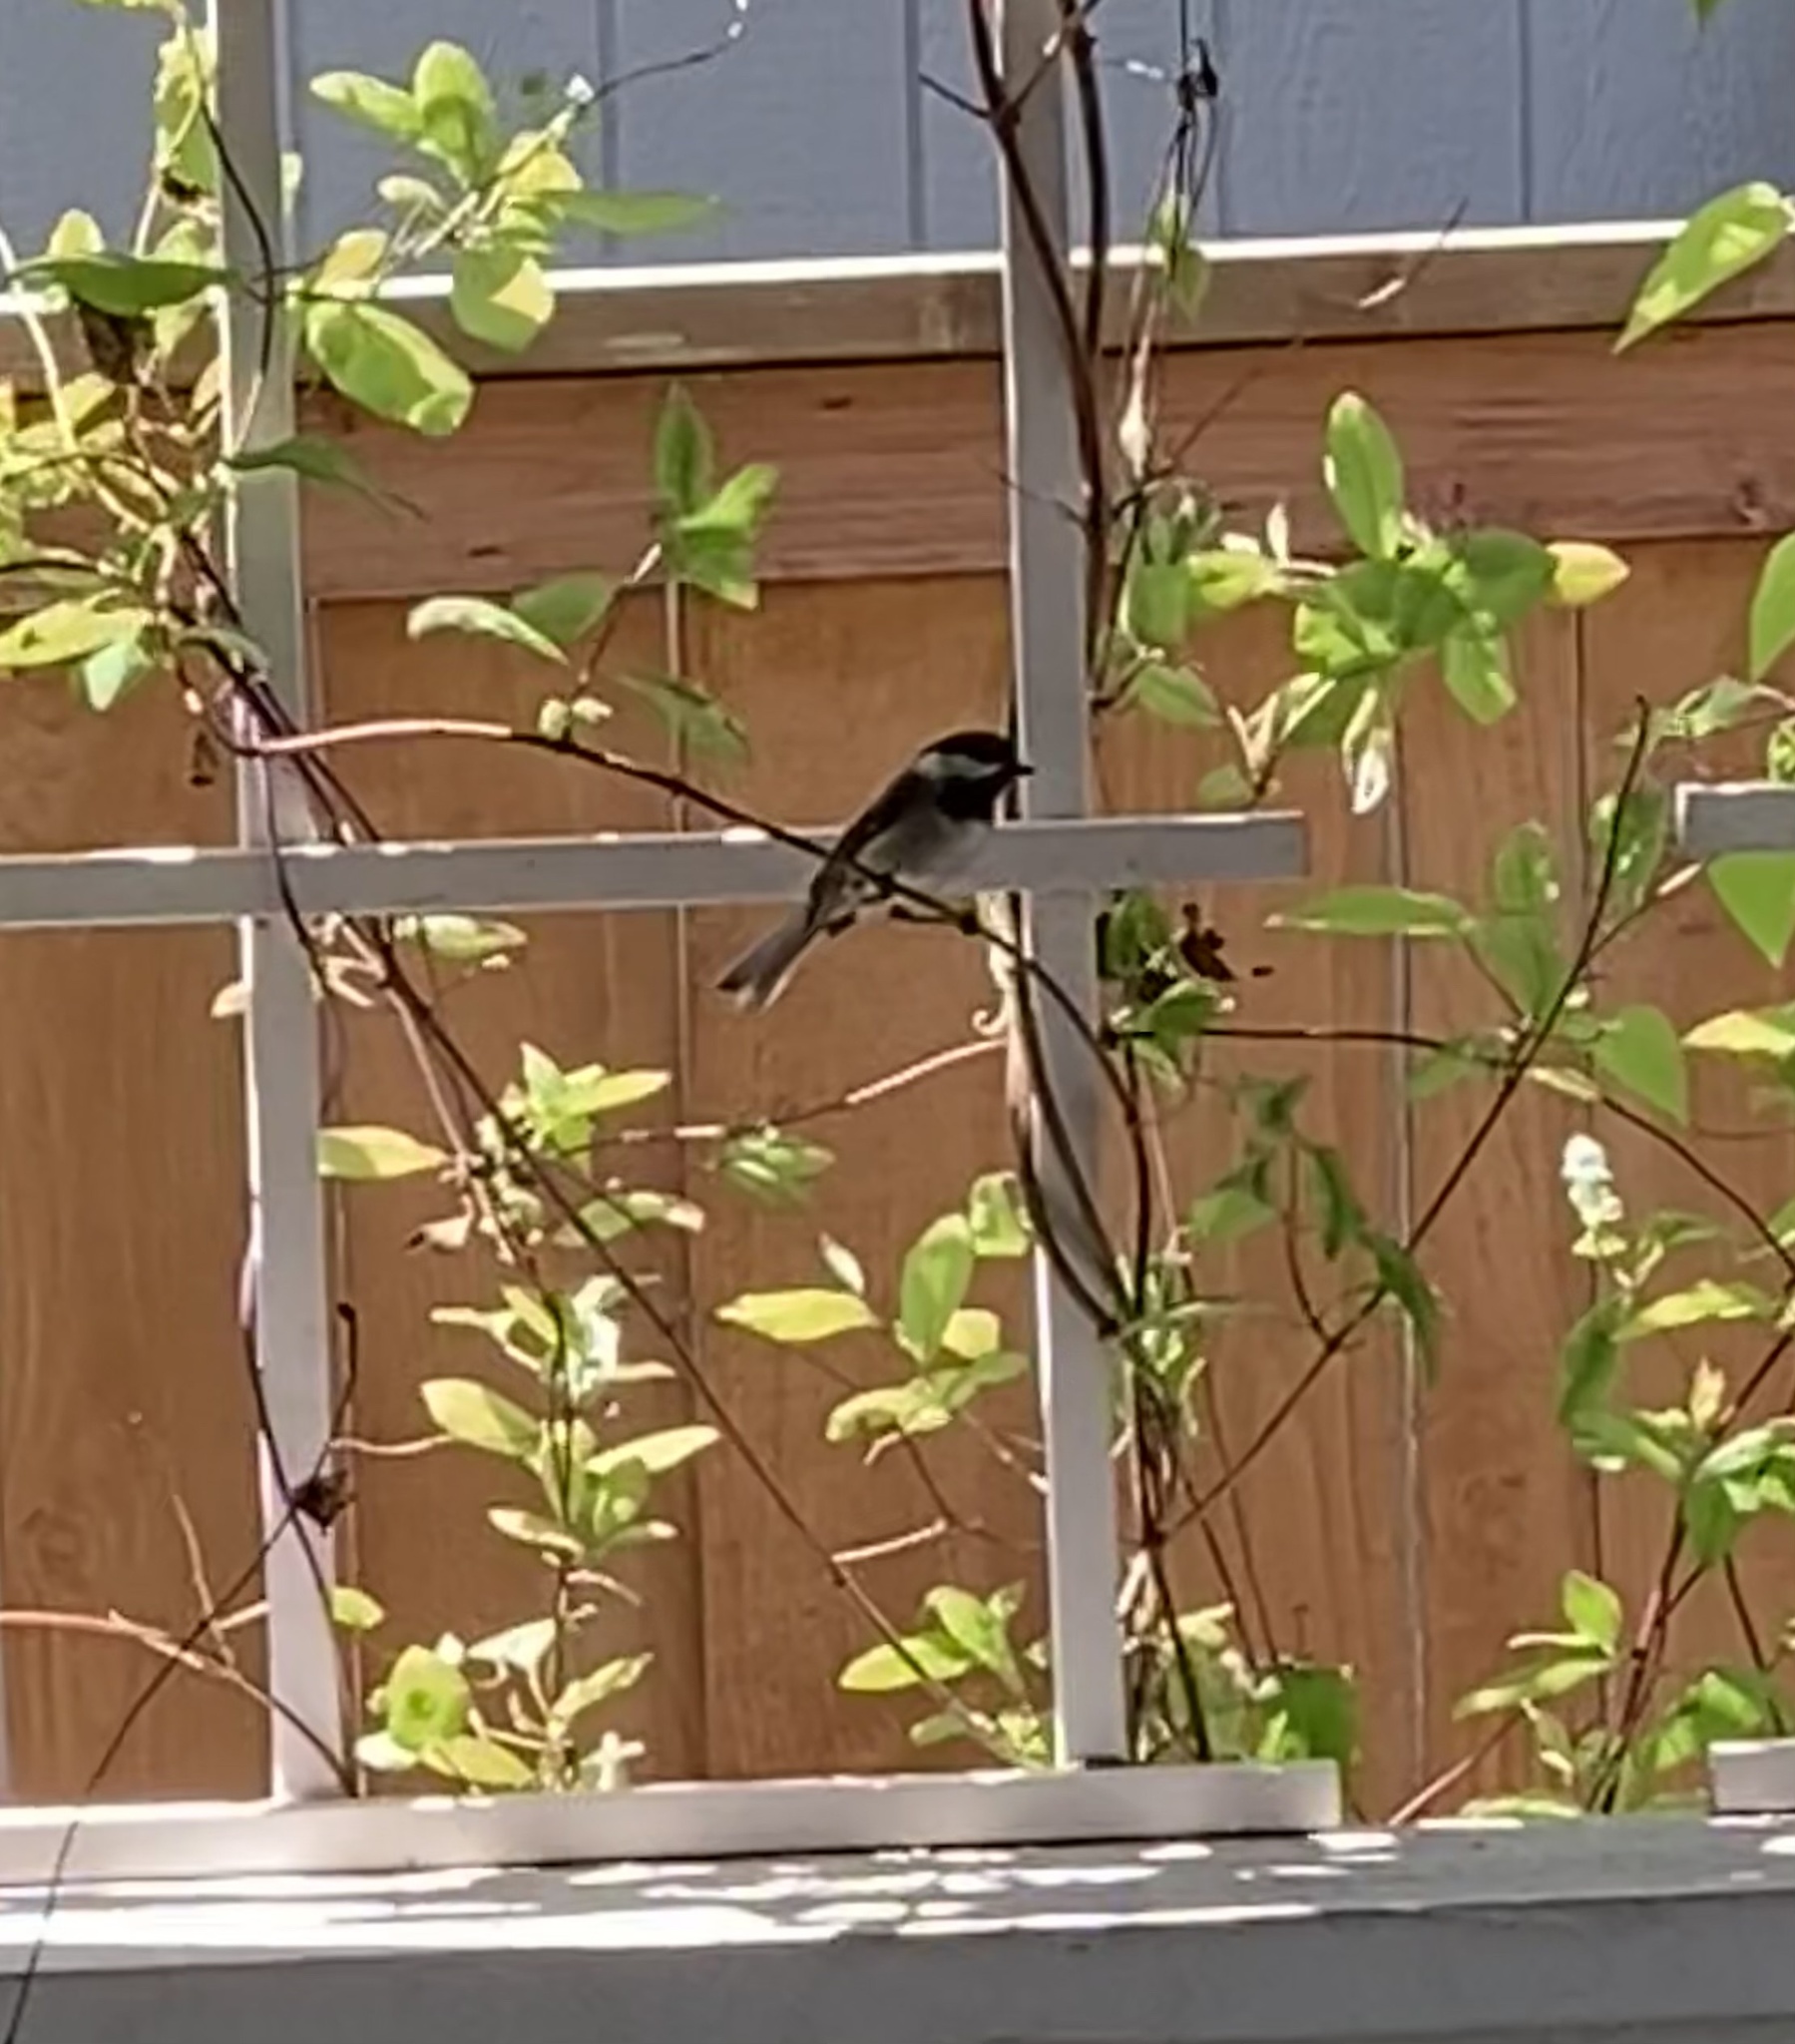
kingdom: Animalia
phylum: Chordata
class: Aves
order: Passeriformes
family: Paridae
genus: Poecile
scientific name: Poecile atricapillus
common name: Black-capped chickadee
